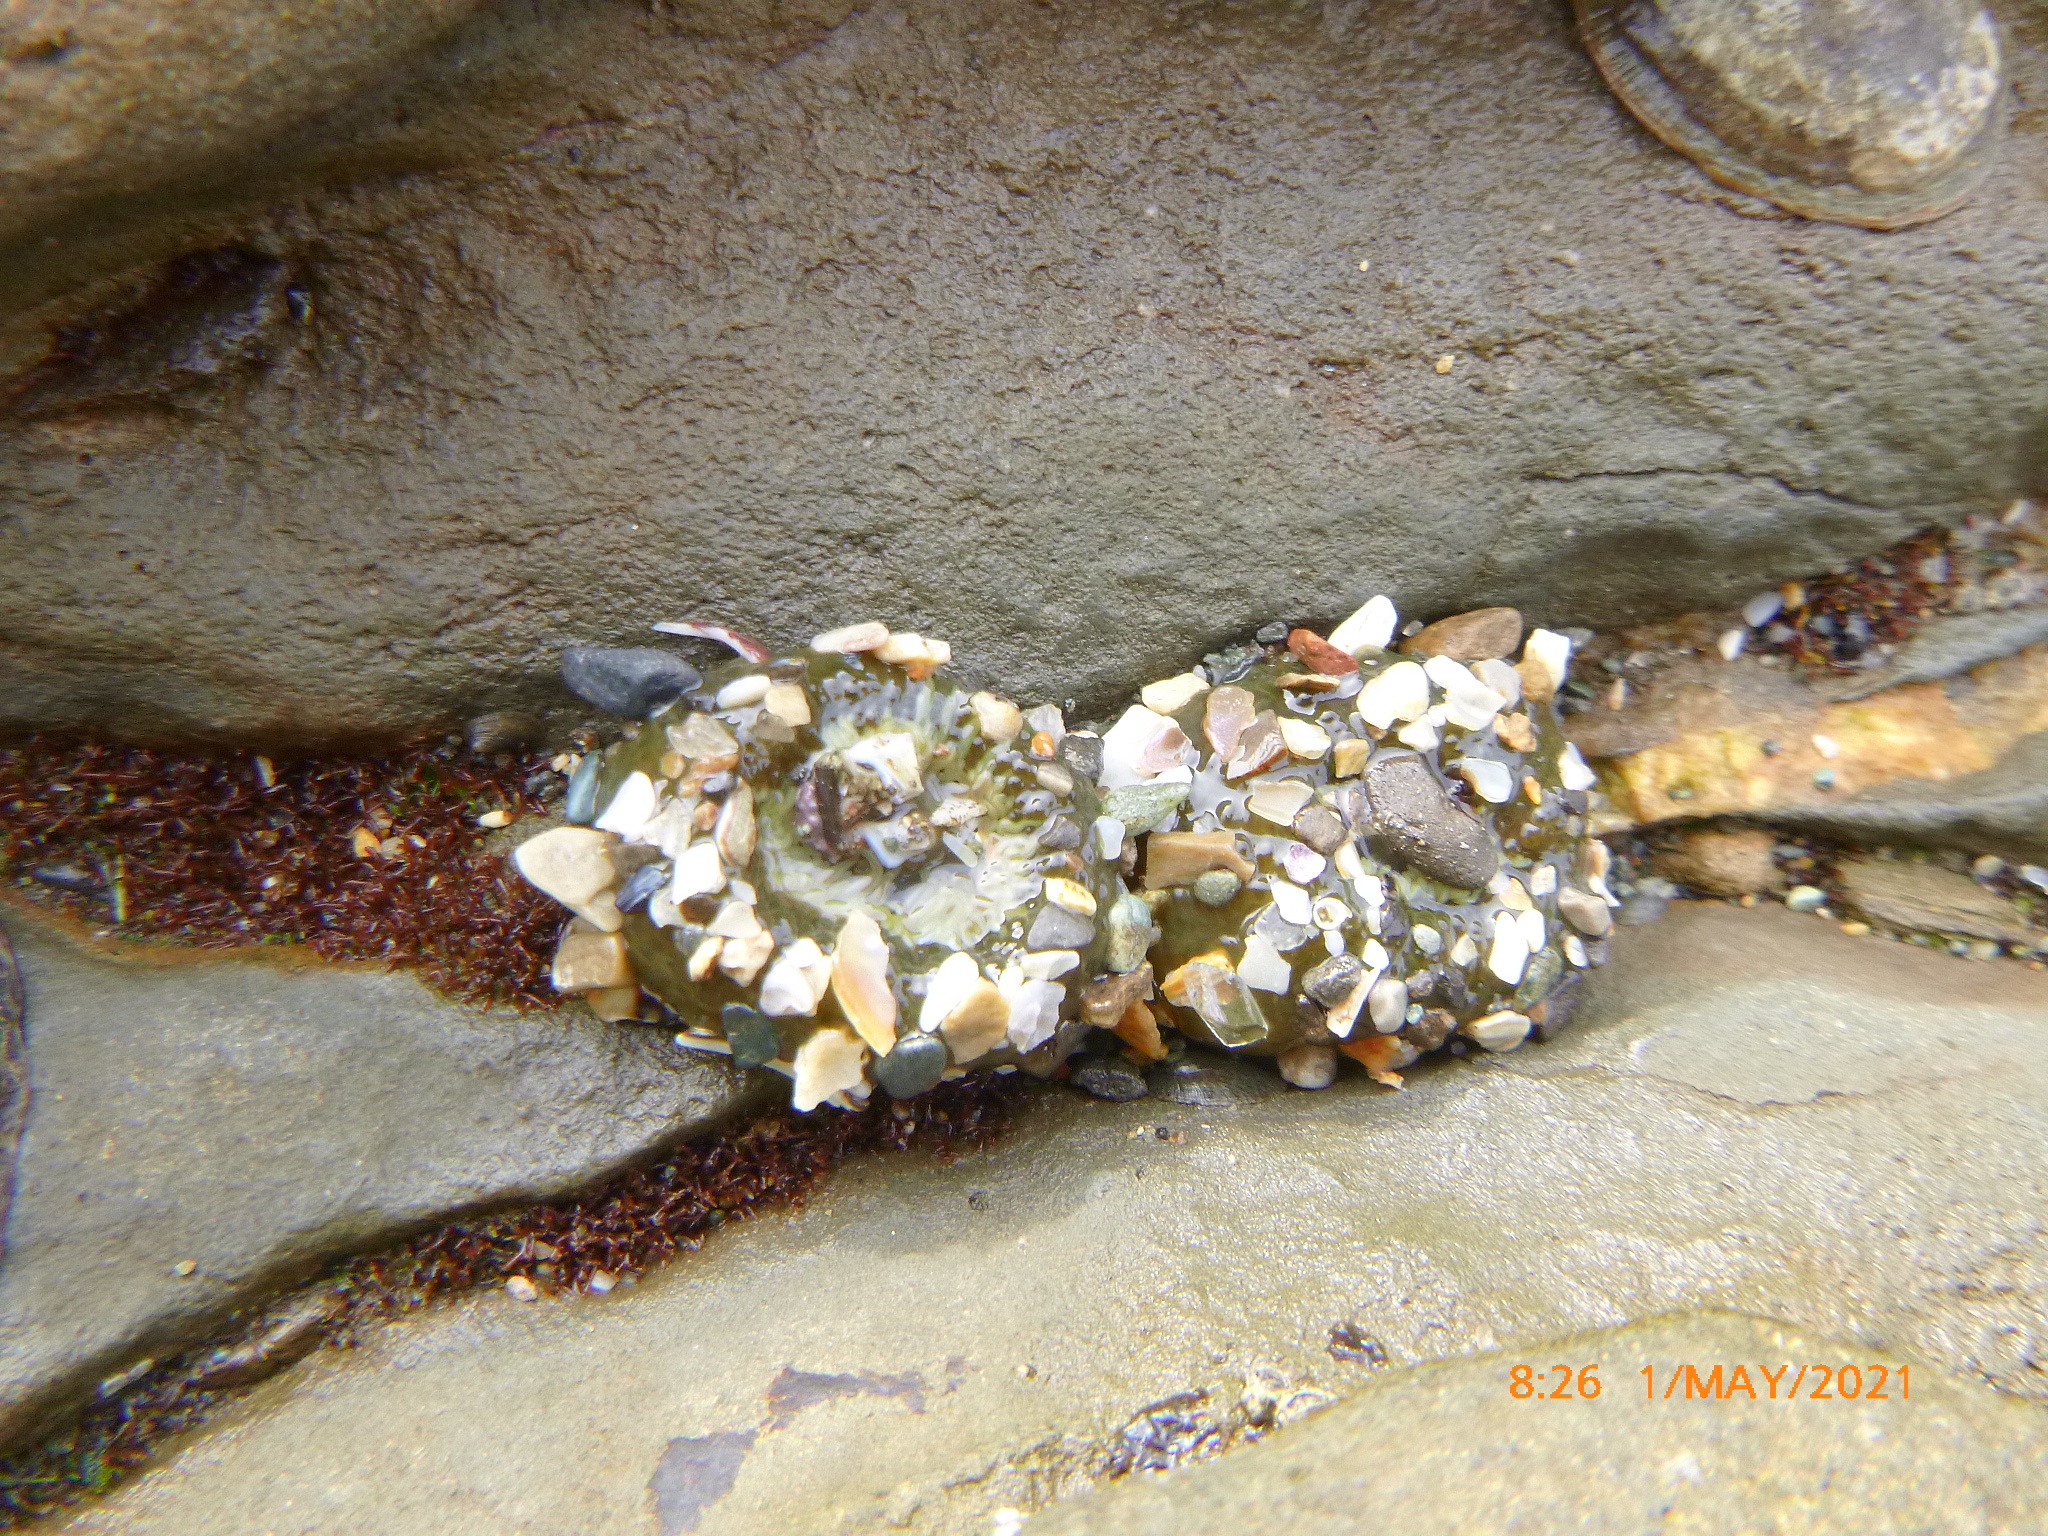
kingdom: Animalia
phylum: Cnidaria
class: Anthozoa
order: Actiniaria
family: Actiniidae
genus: Anthopleura
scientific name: Anthopleura elegantissima
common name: Clonal anemone
